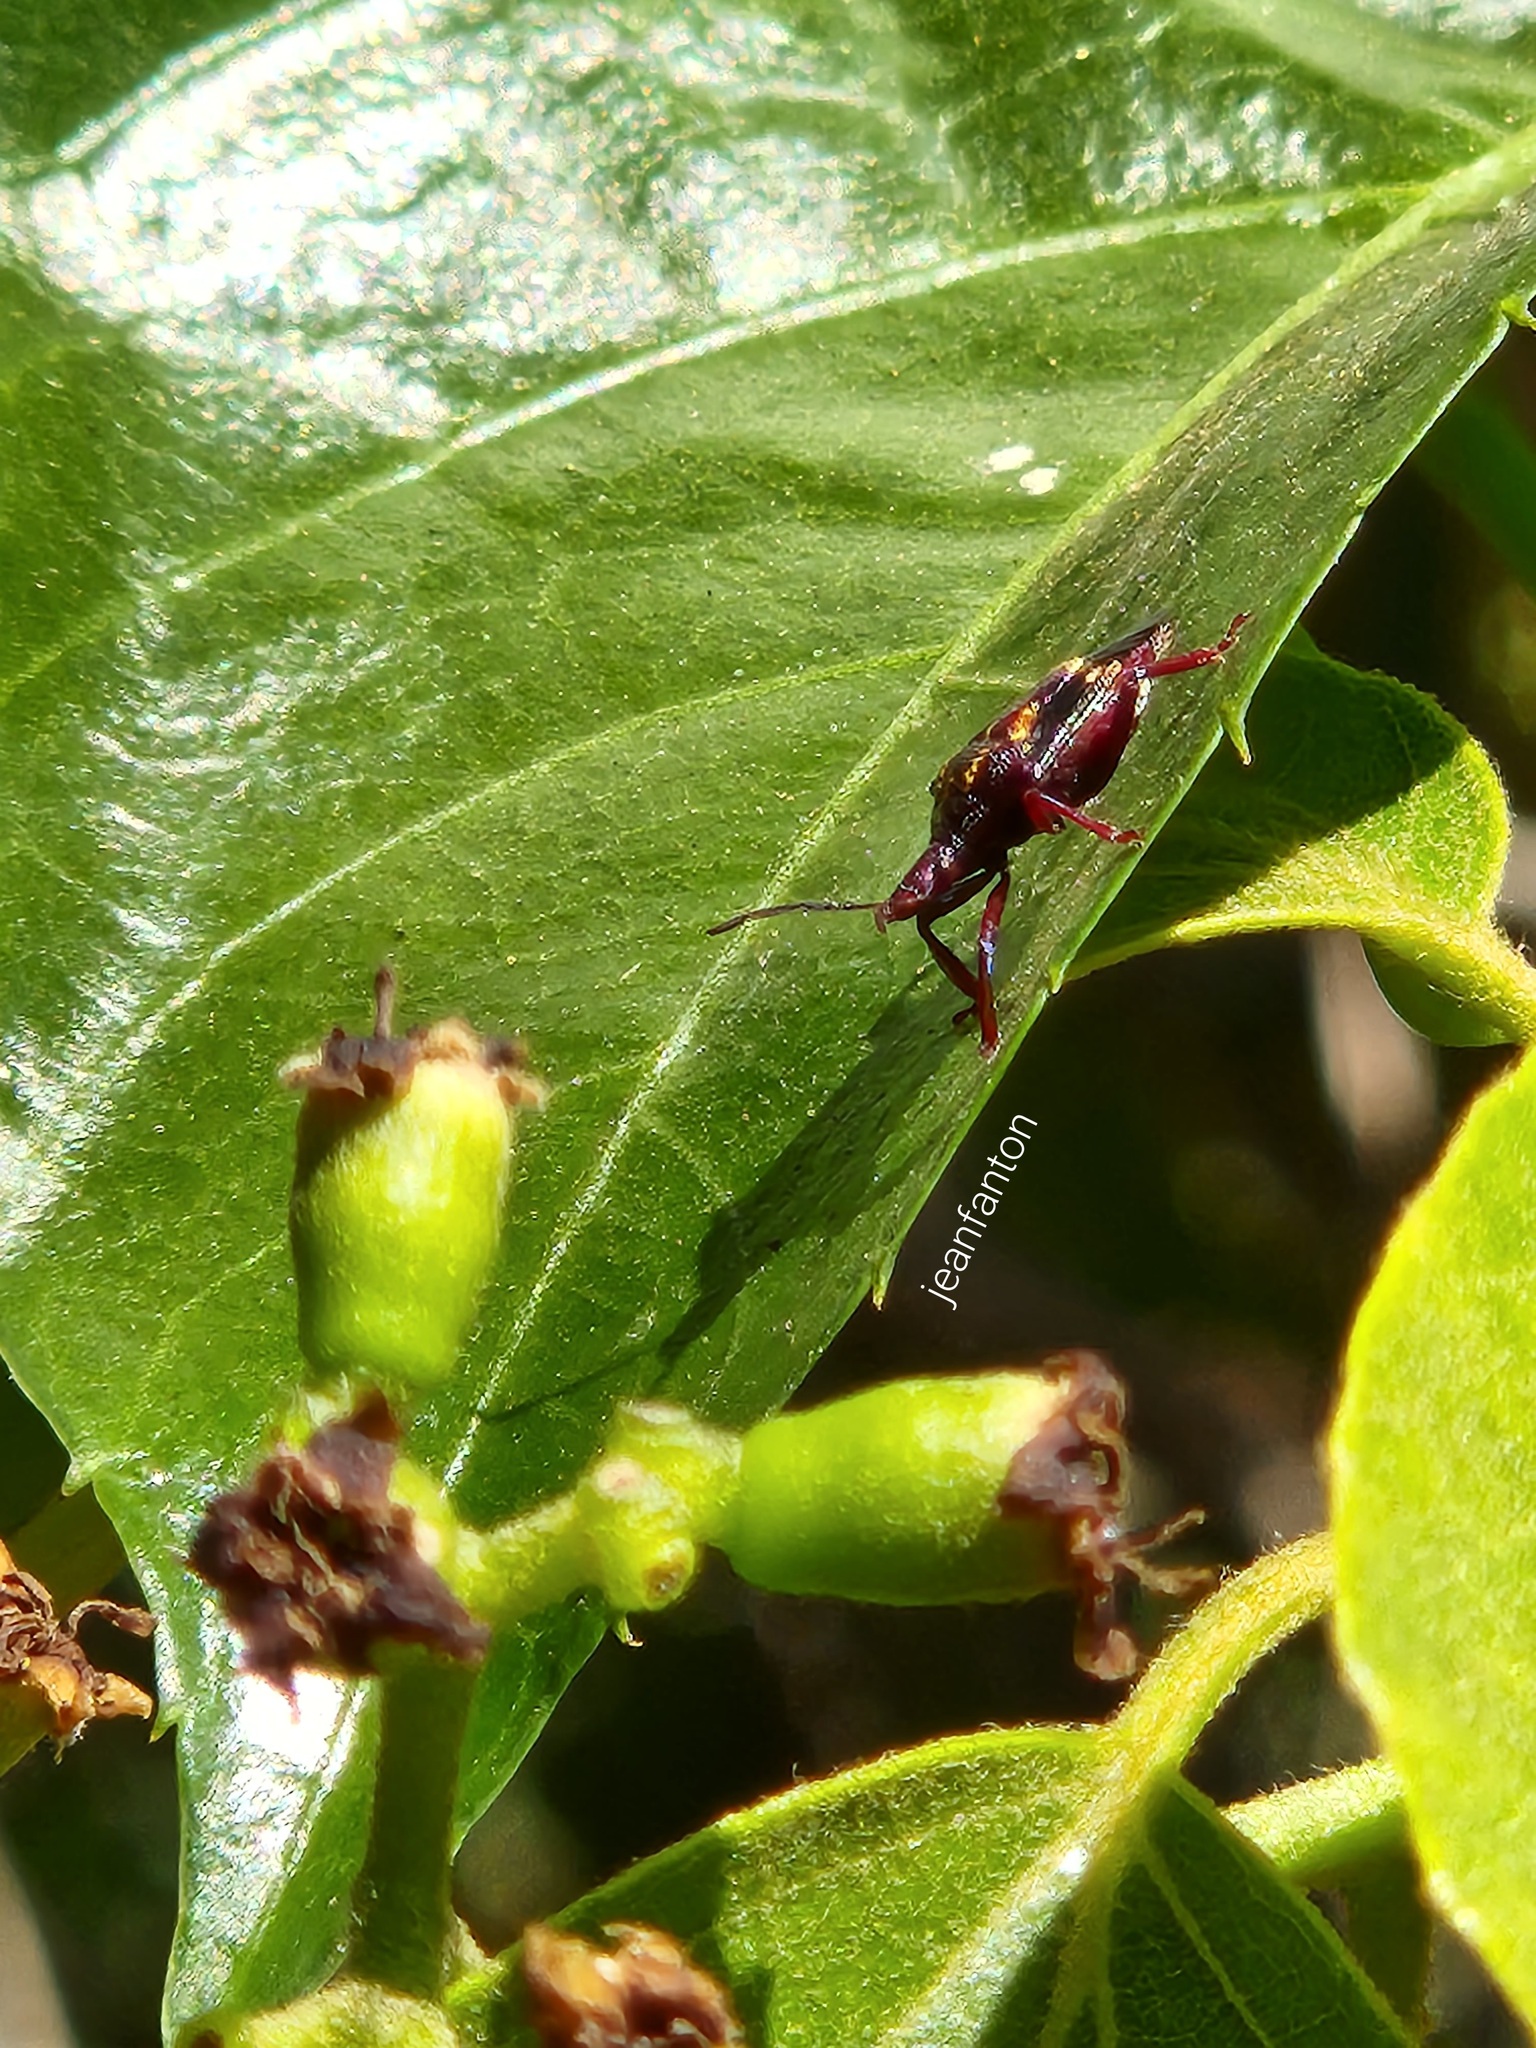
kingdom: Animalia
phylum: Arthropoda
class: Insecta
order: Hemiptera
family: Pentatomidae
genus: Heteroscelis
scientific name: Heteroscelis servillii
